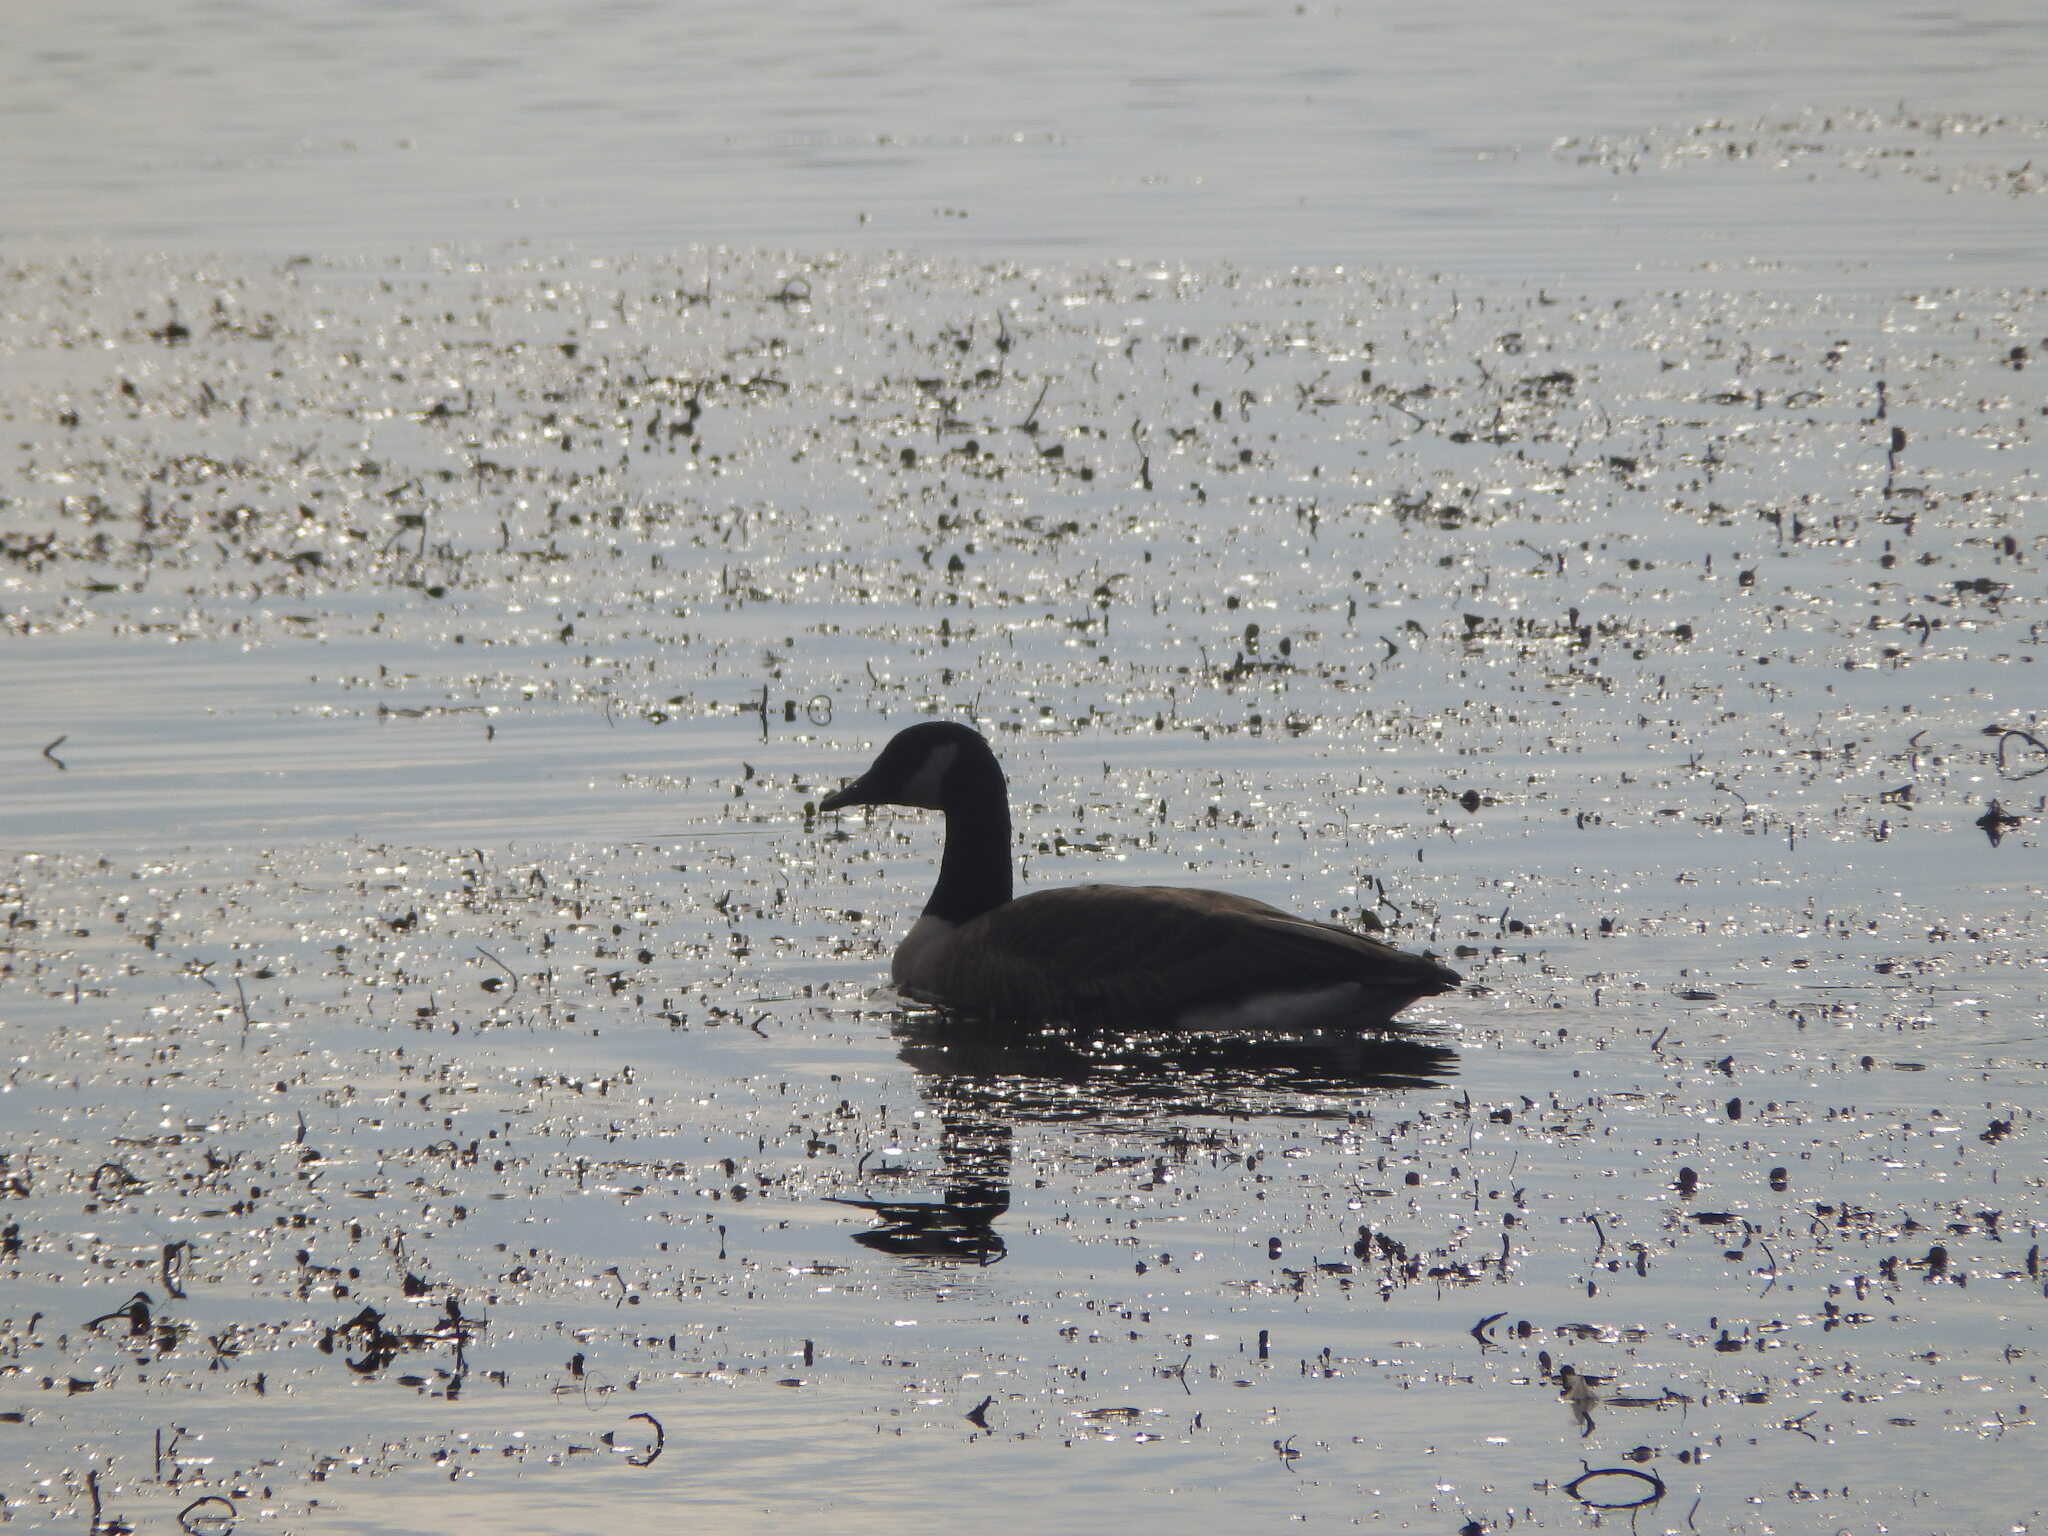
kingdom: Animalia
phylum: Chordata
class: Aves
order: Anseriformes
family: Anatidae
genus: Branta
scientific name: Branta canadensis
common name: Canada goose
